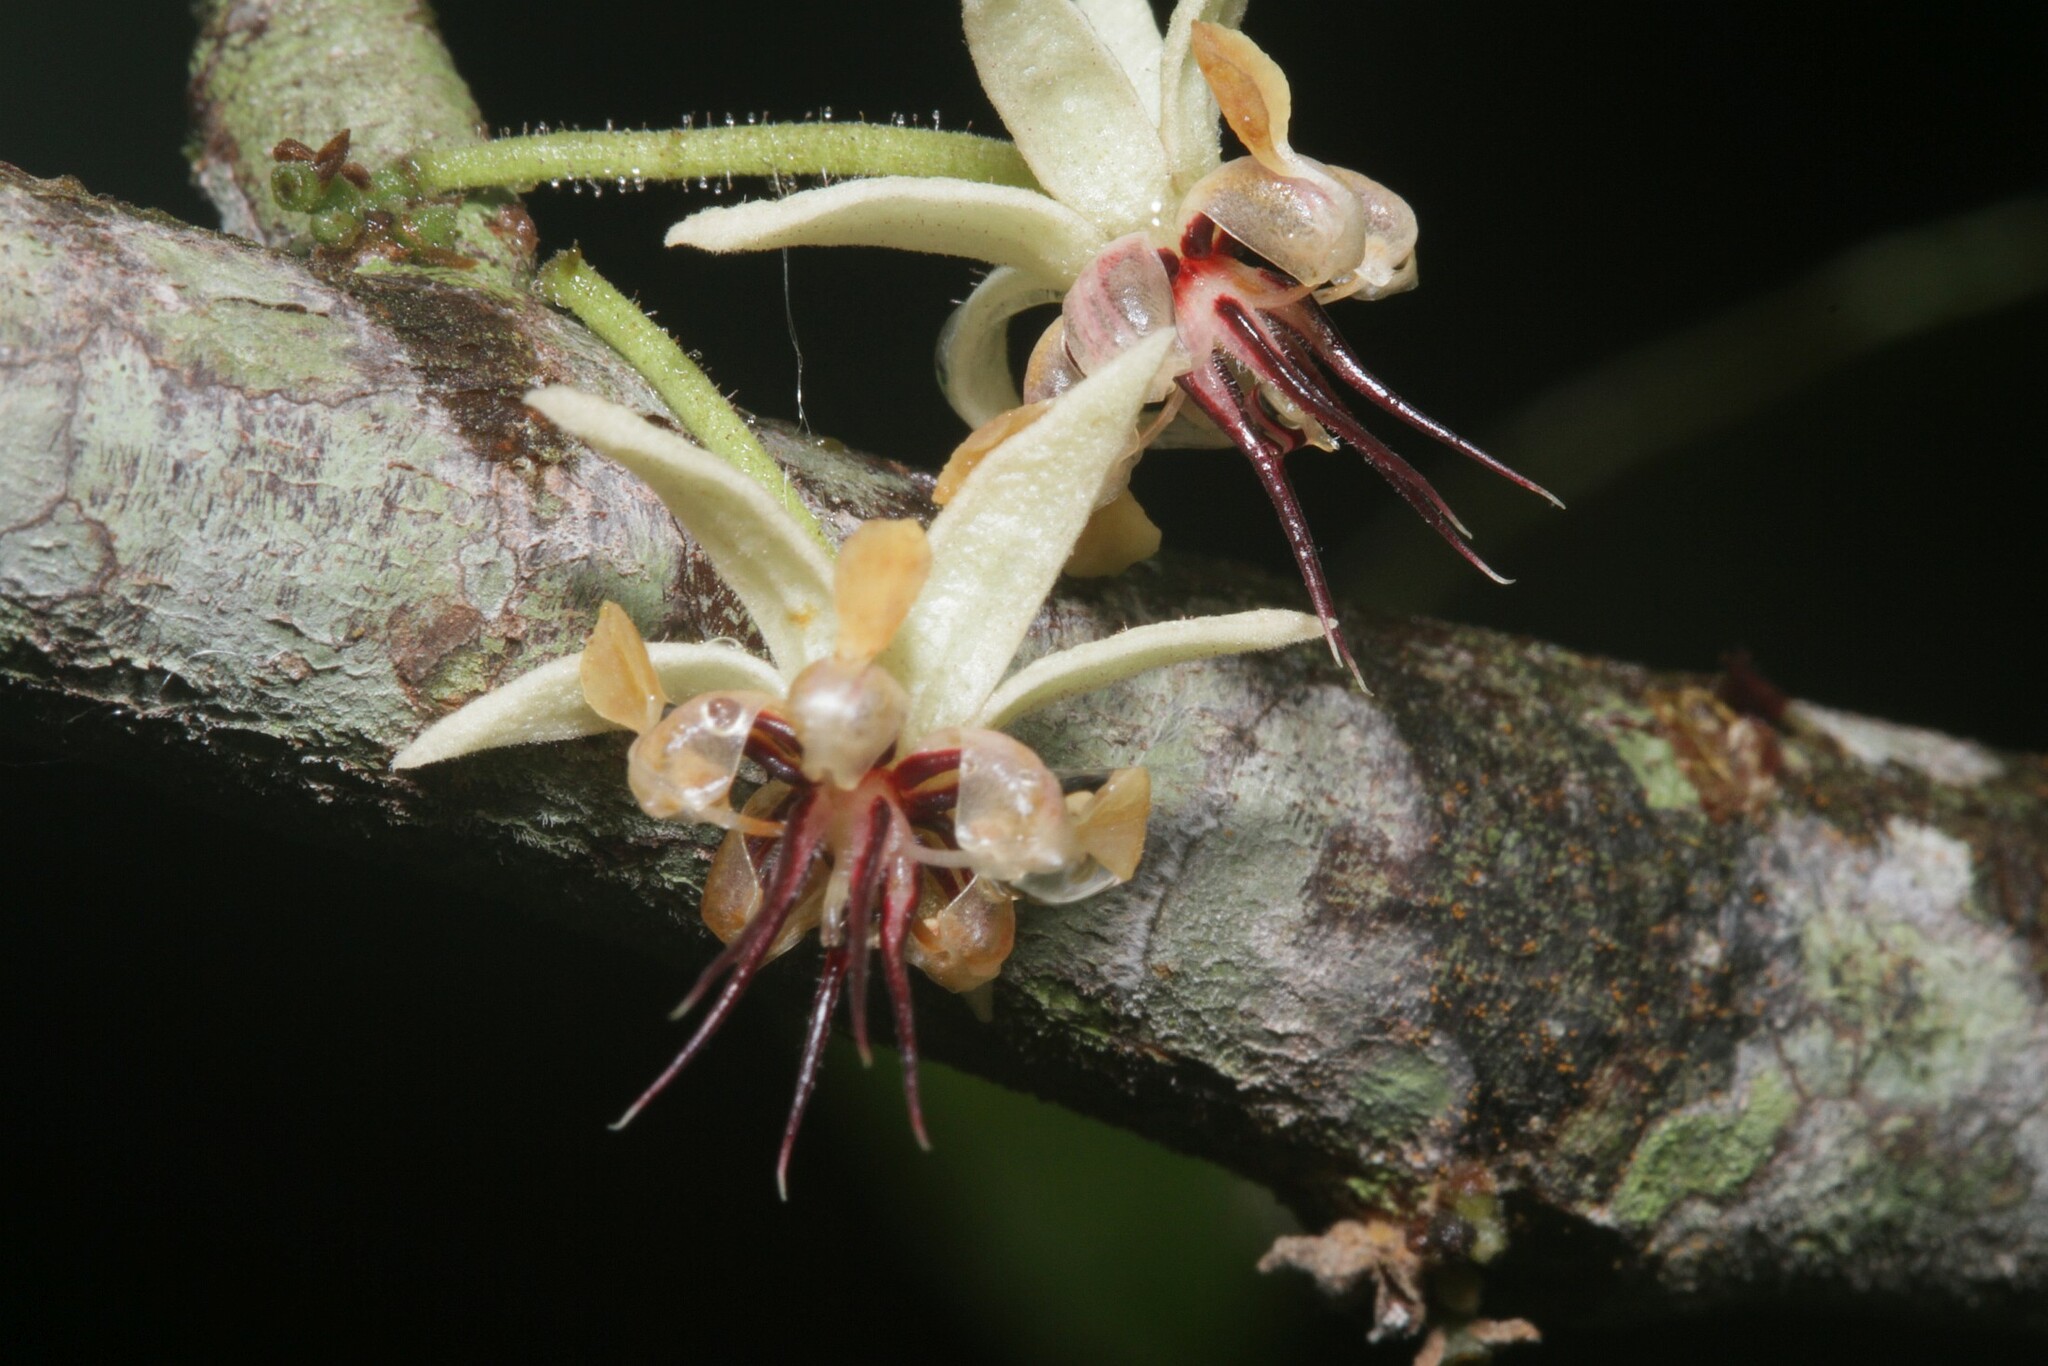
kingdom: Plantae
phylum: Tracheophyta
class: Magnoliopsida
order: Malvales
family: Malvaceae
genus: Theobroma
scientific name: Theobroma cacao
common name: Cocoa
